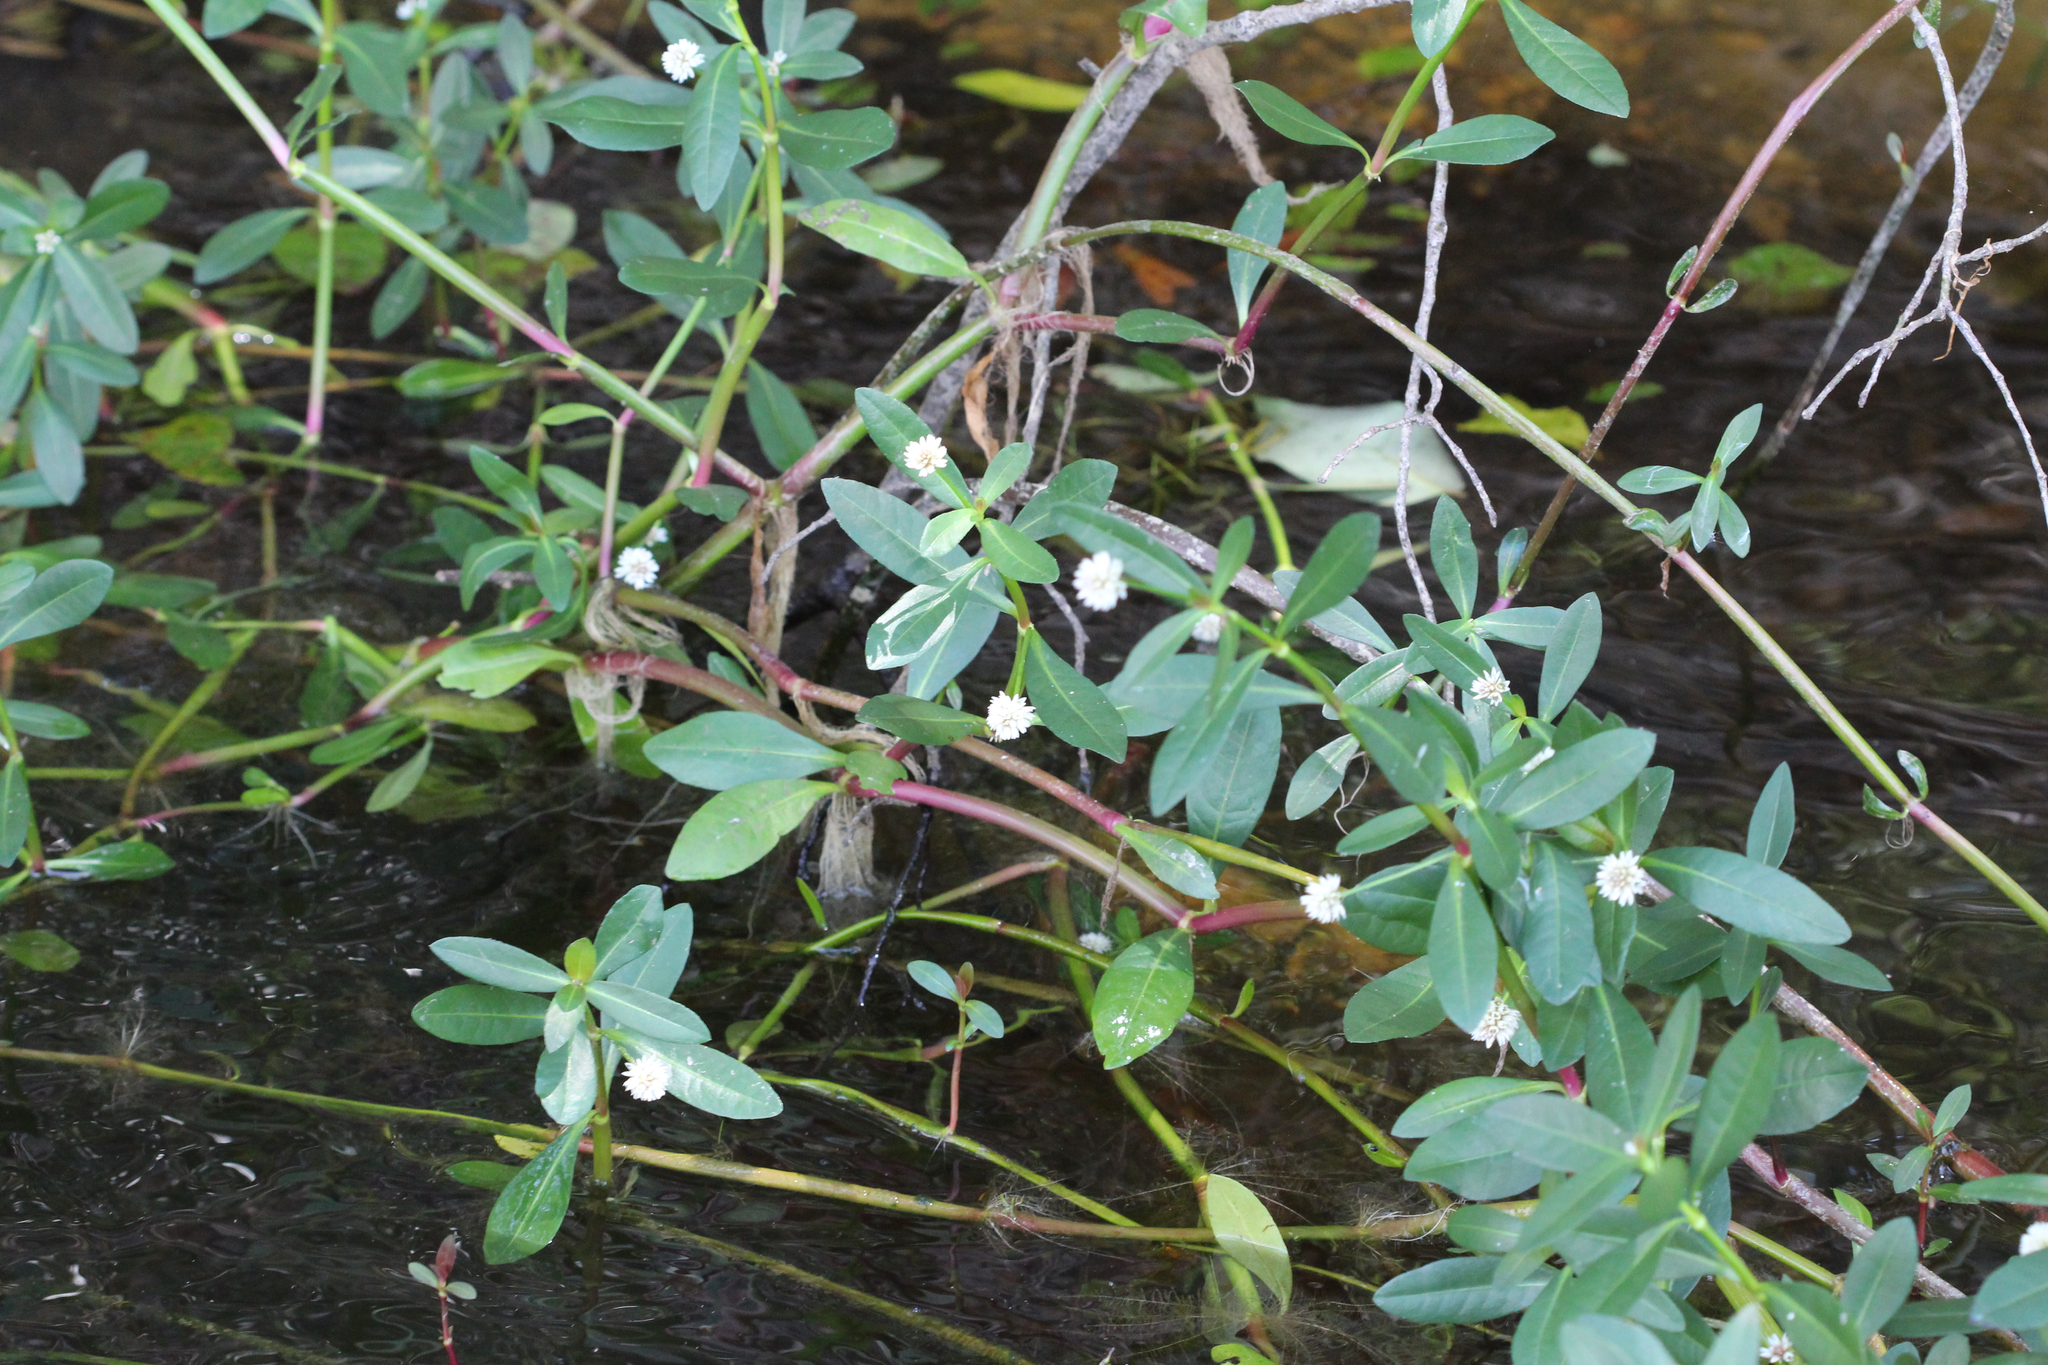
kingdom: Plantae
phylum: Tracheophyta
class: Magnoliopsida
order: Caryophyllales
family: Amaranthaceae
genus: Alternanthera
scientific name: Alternanthera philoxeroides
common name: Alligatorweed
